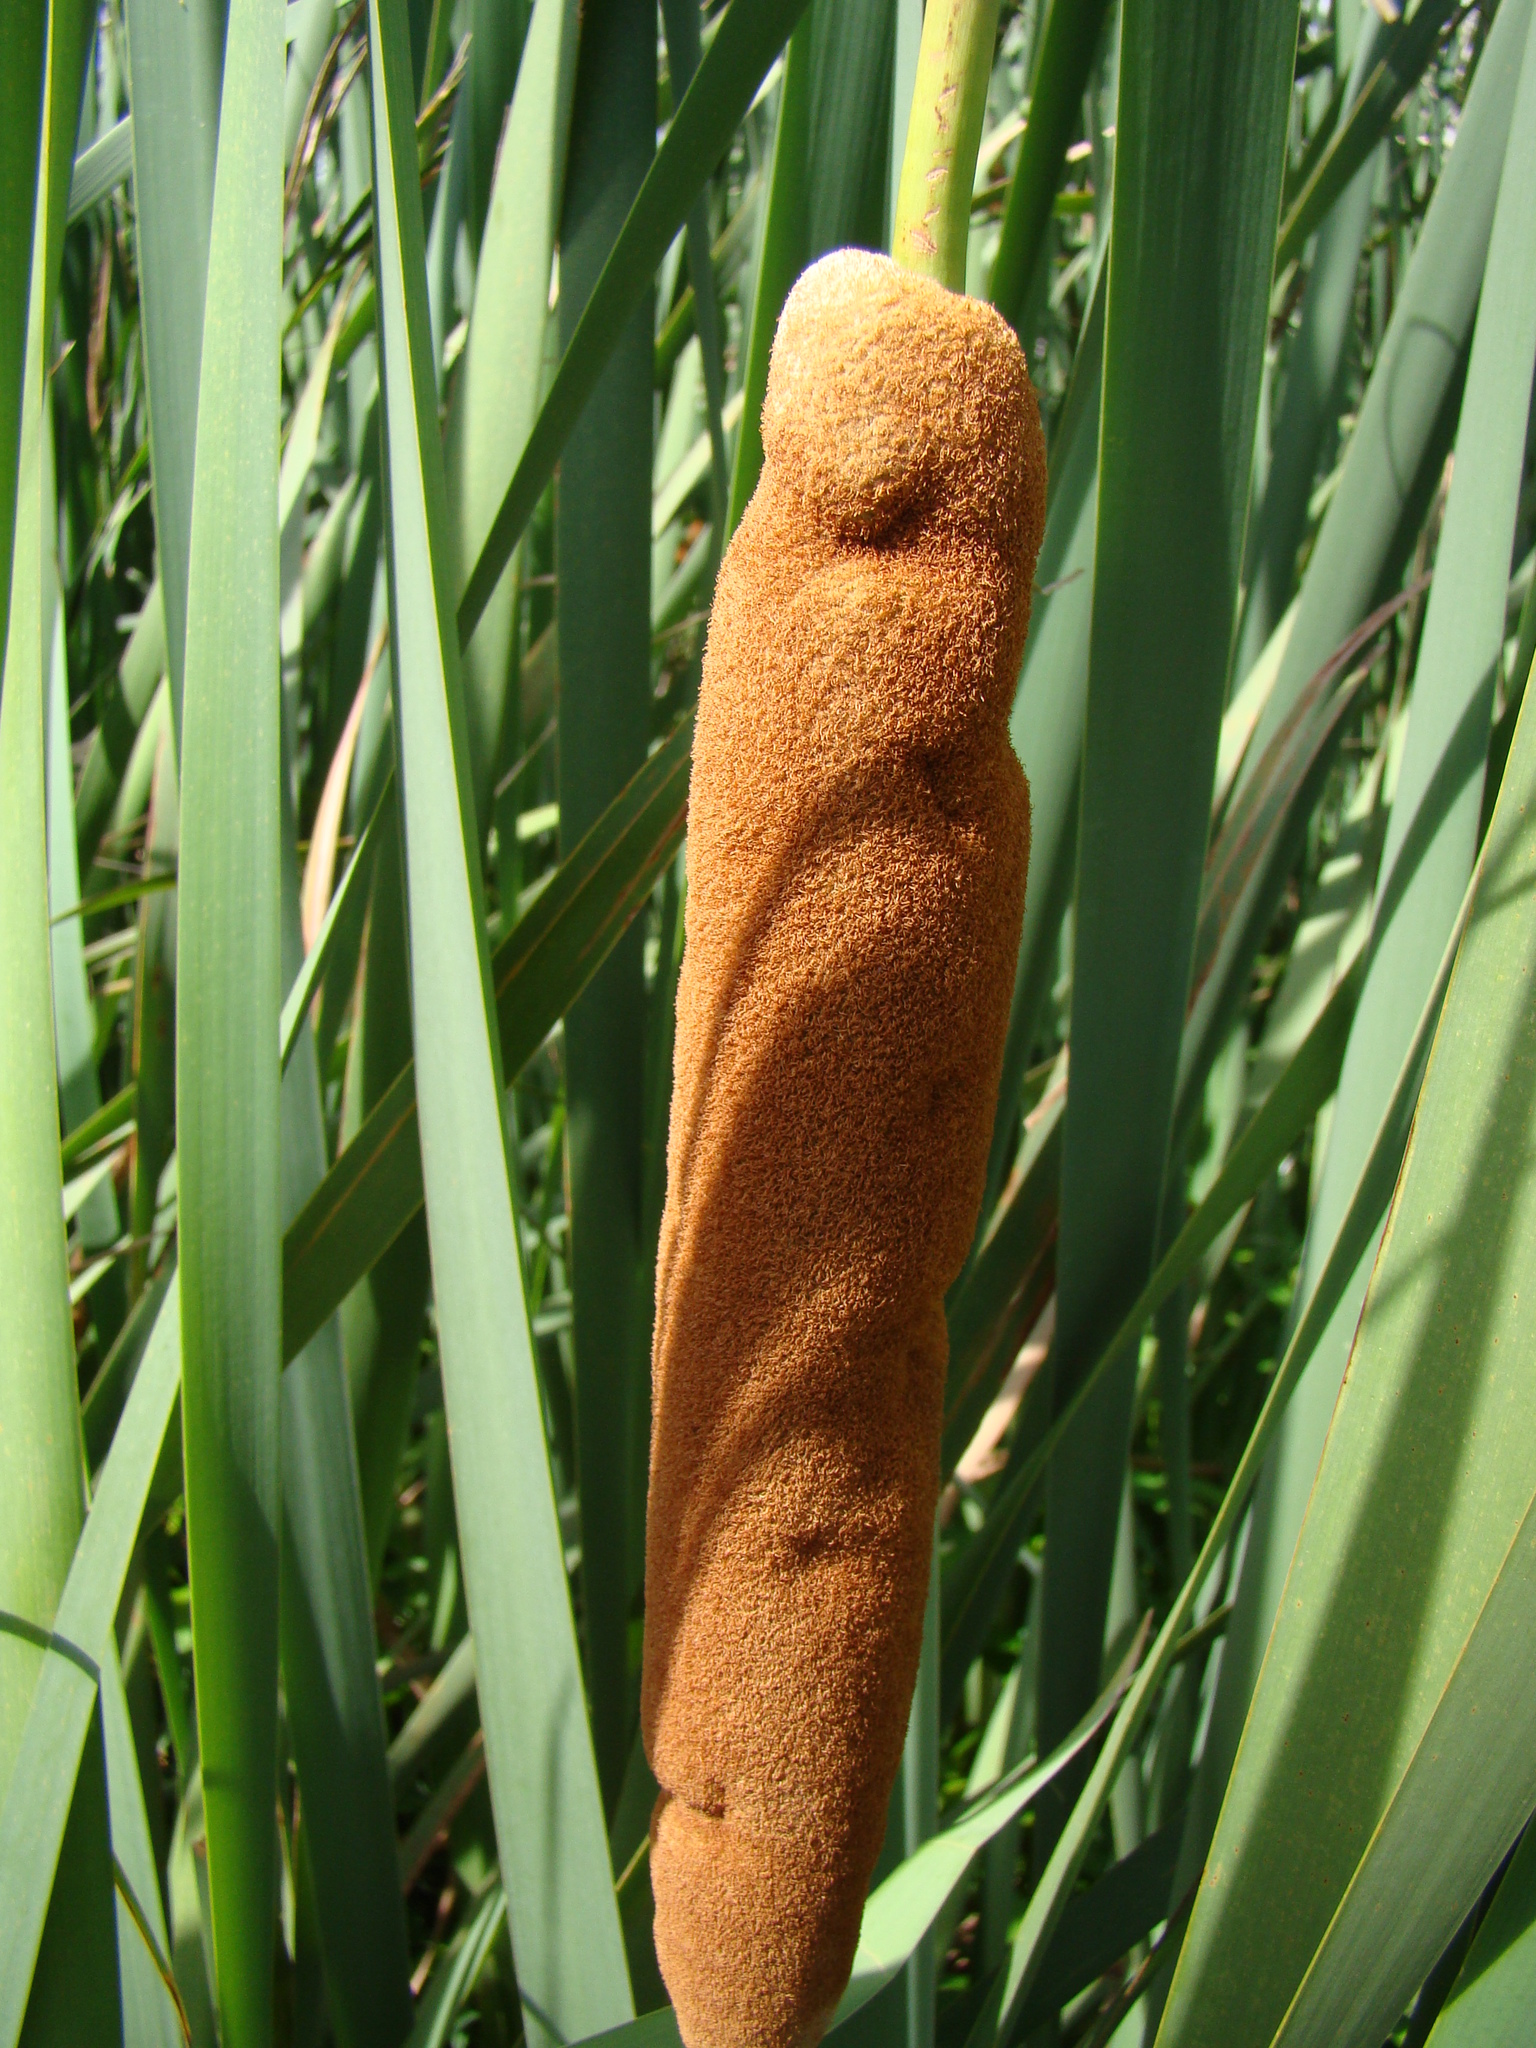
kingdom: Plantae
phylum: Tracheophyta
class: Liliopsida
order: Poales
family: Typhaceae
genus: Typha
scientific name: Typha orientalis
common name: Bullrush
